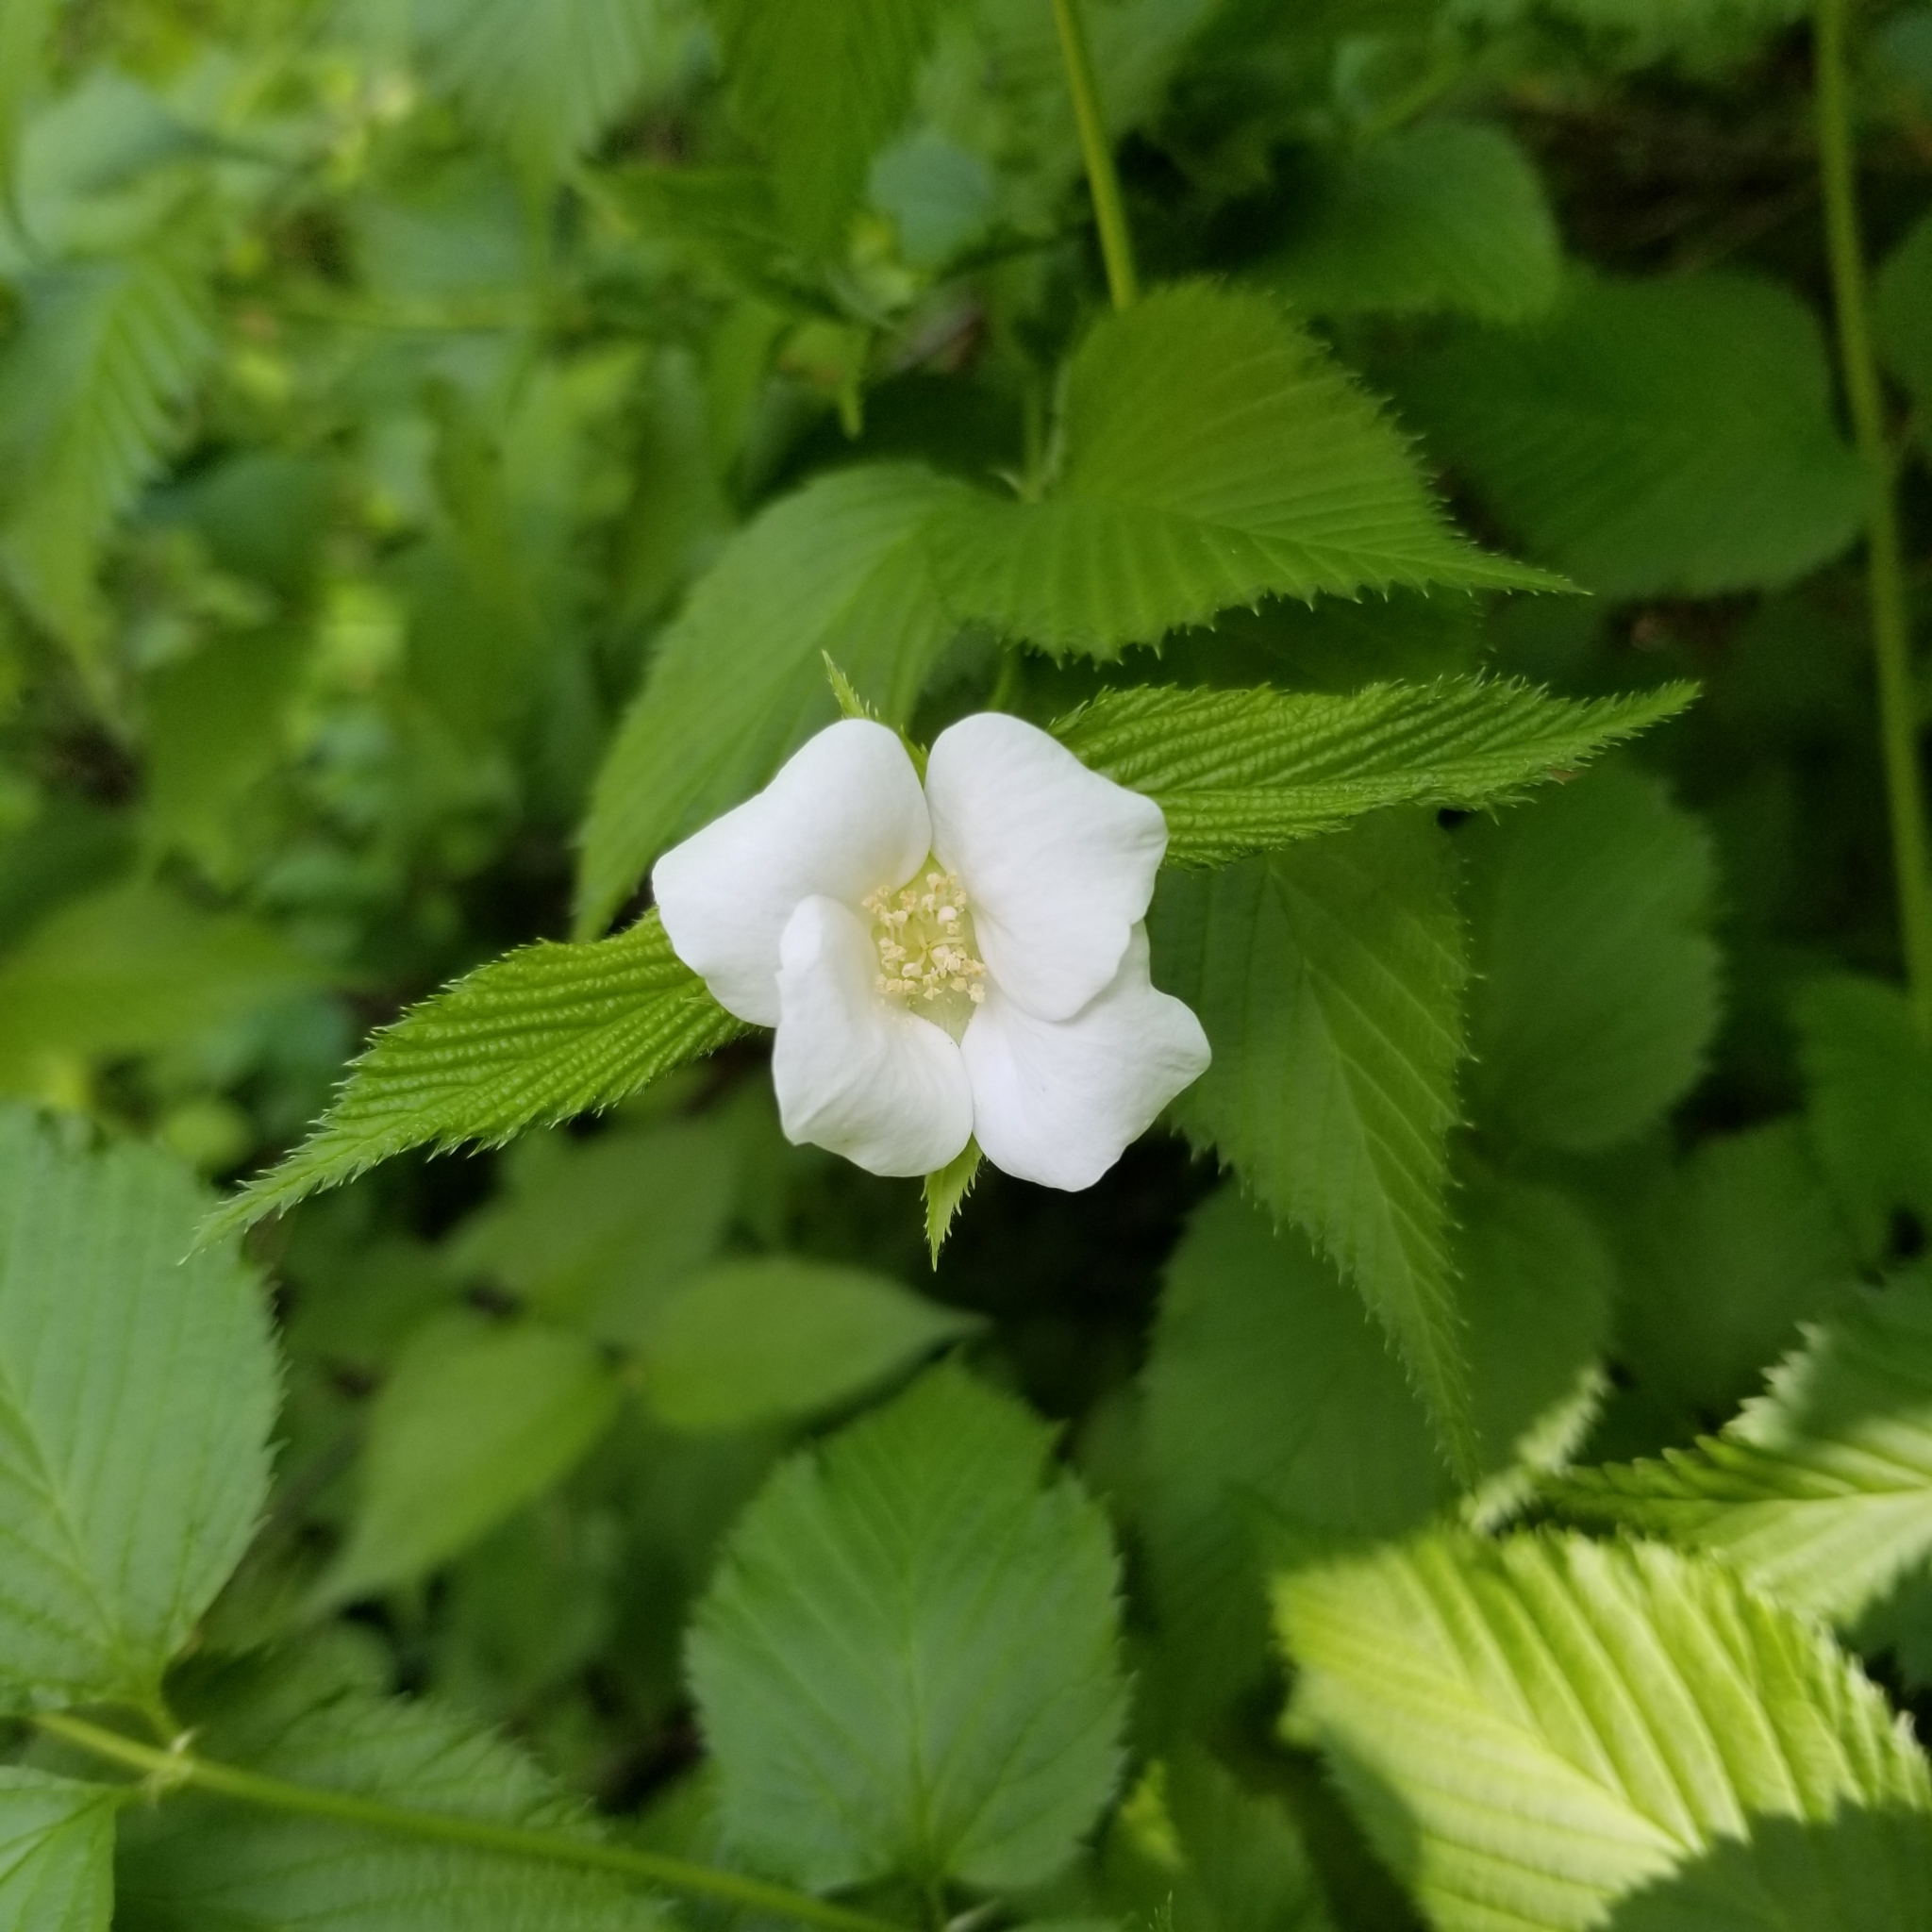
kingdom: Plantae
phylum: Tracheophyta
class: Magnoliopsida
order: Rosales
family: Rosaceae
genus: Rhodotypos
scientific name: Rhodotypos scandens
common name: Jetbead
